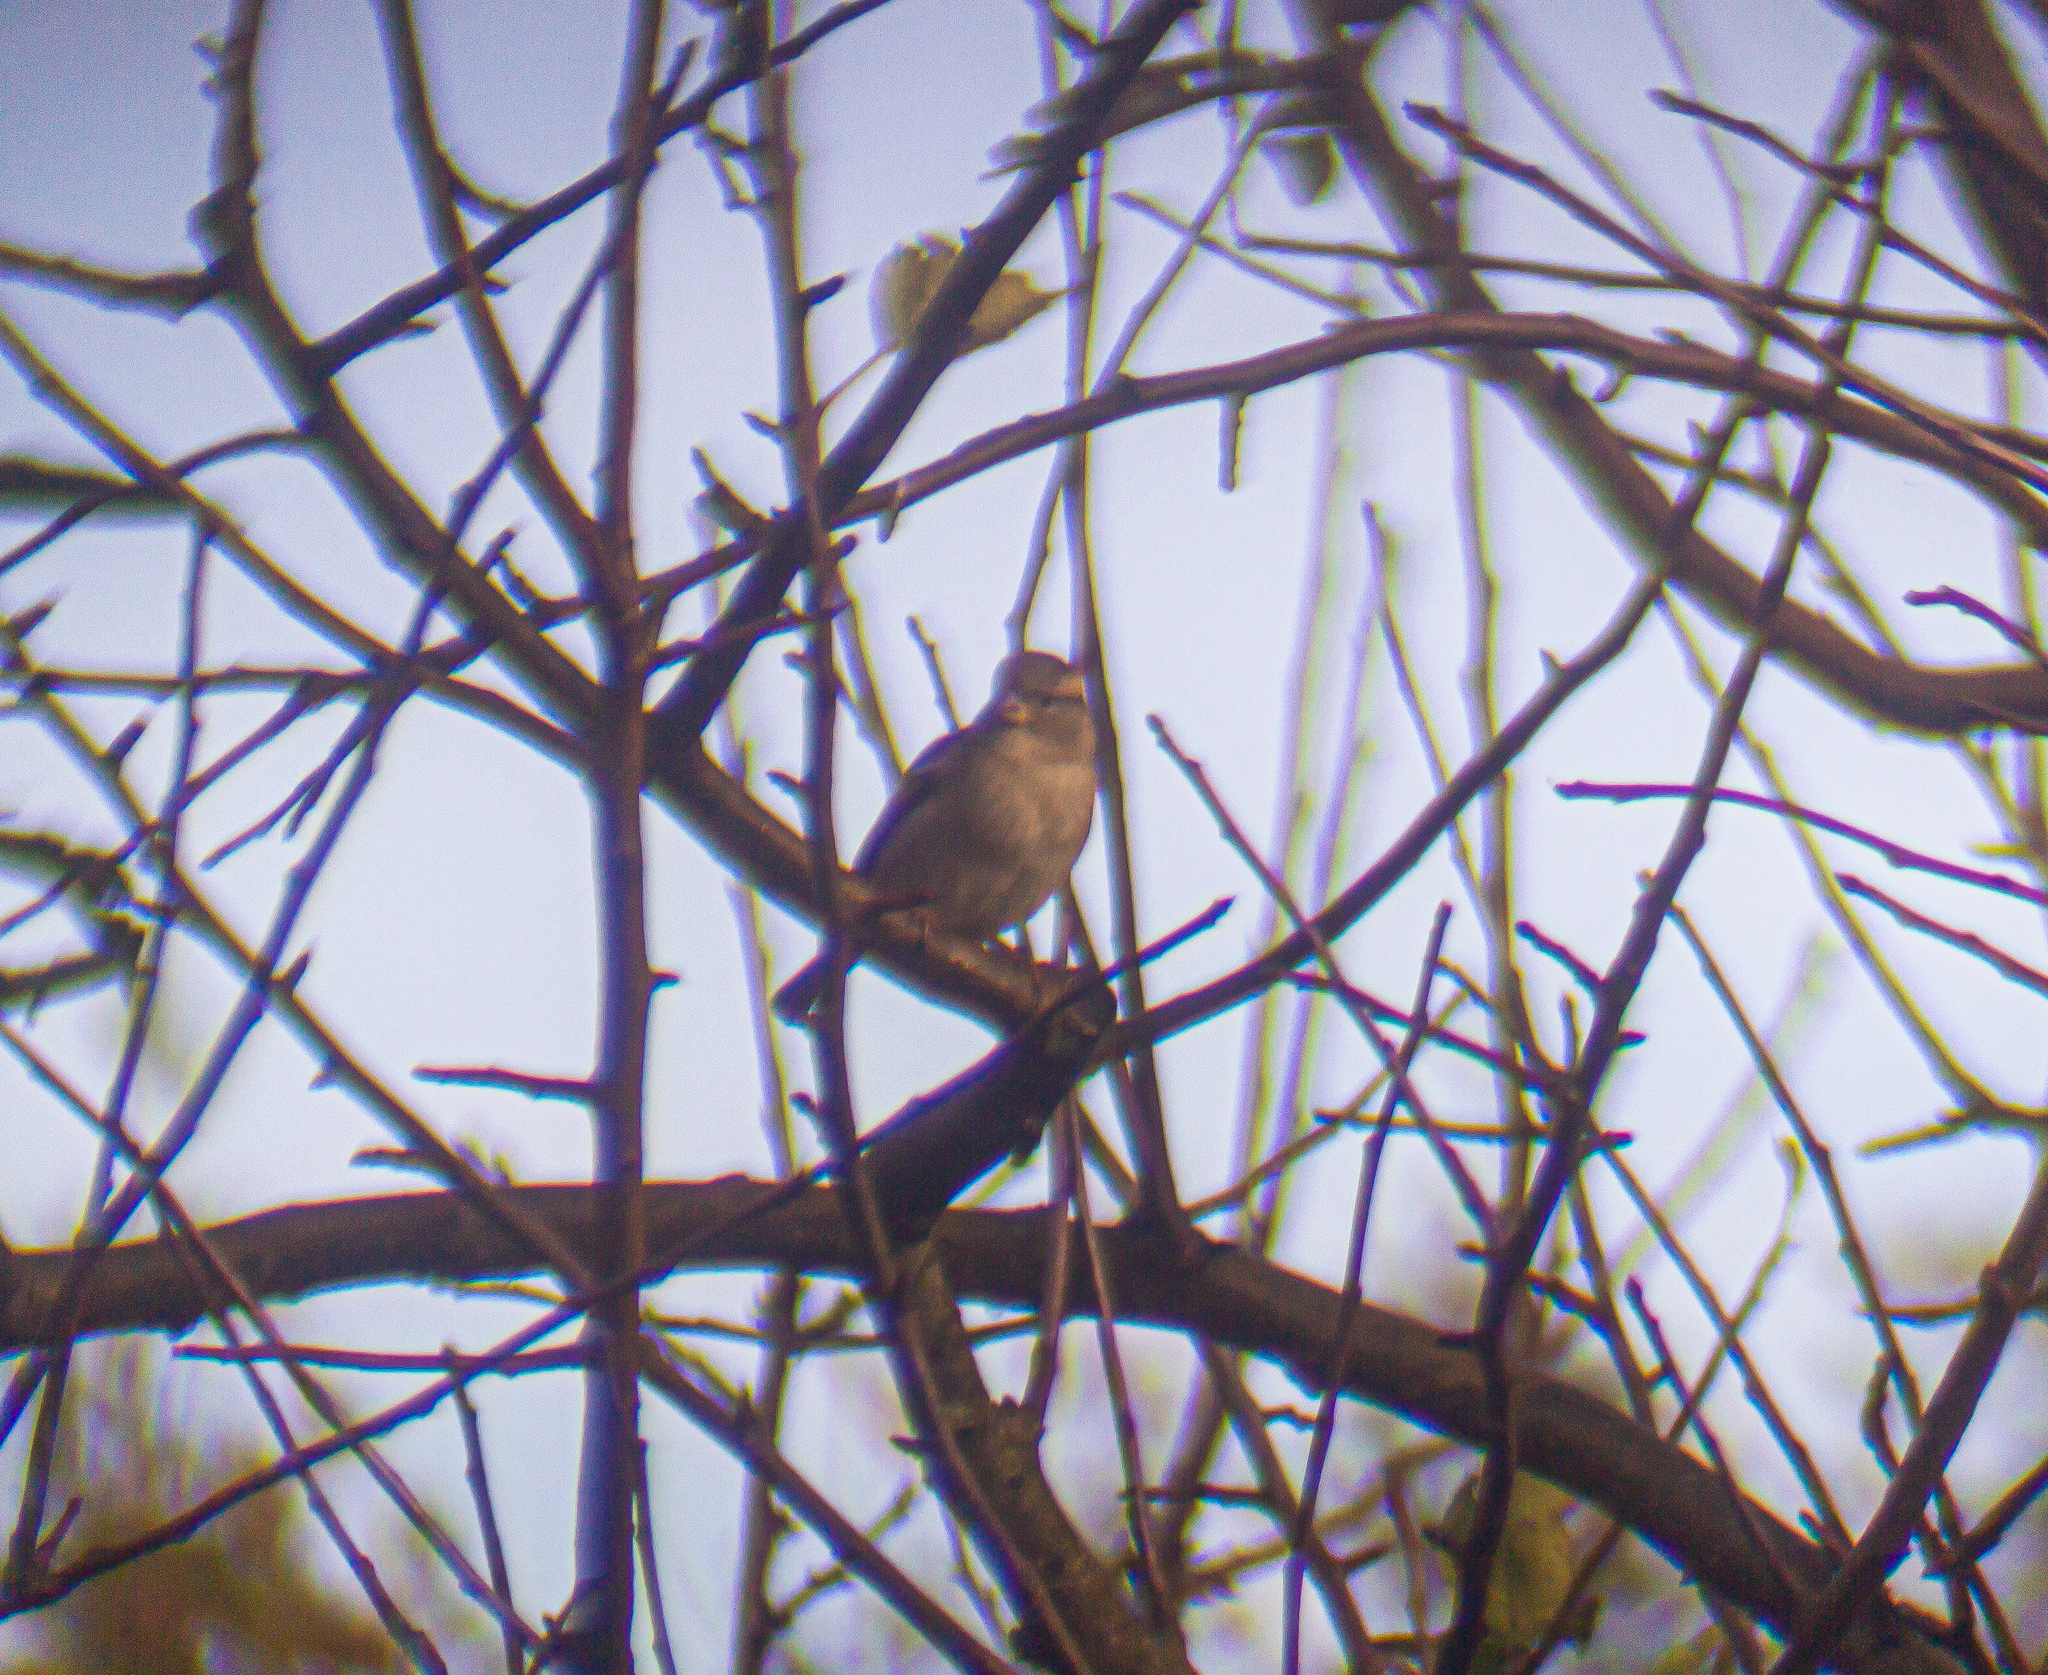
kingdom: Animalia
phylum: Chordata
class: Aves
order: Passeriformes
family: Passeridae
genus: Passer
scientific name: Passer domesticus
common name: House sparrow
